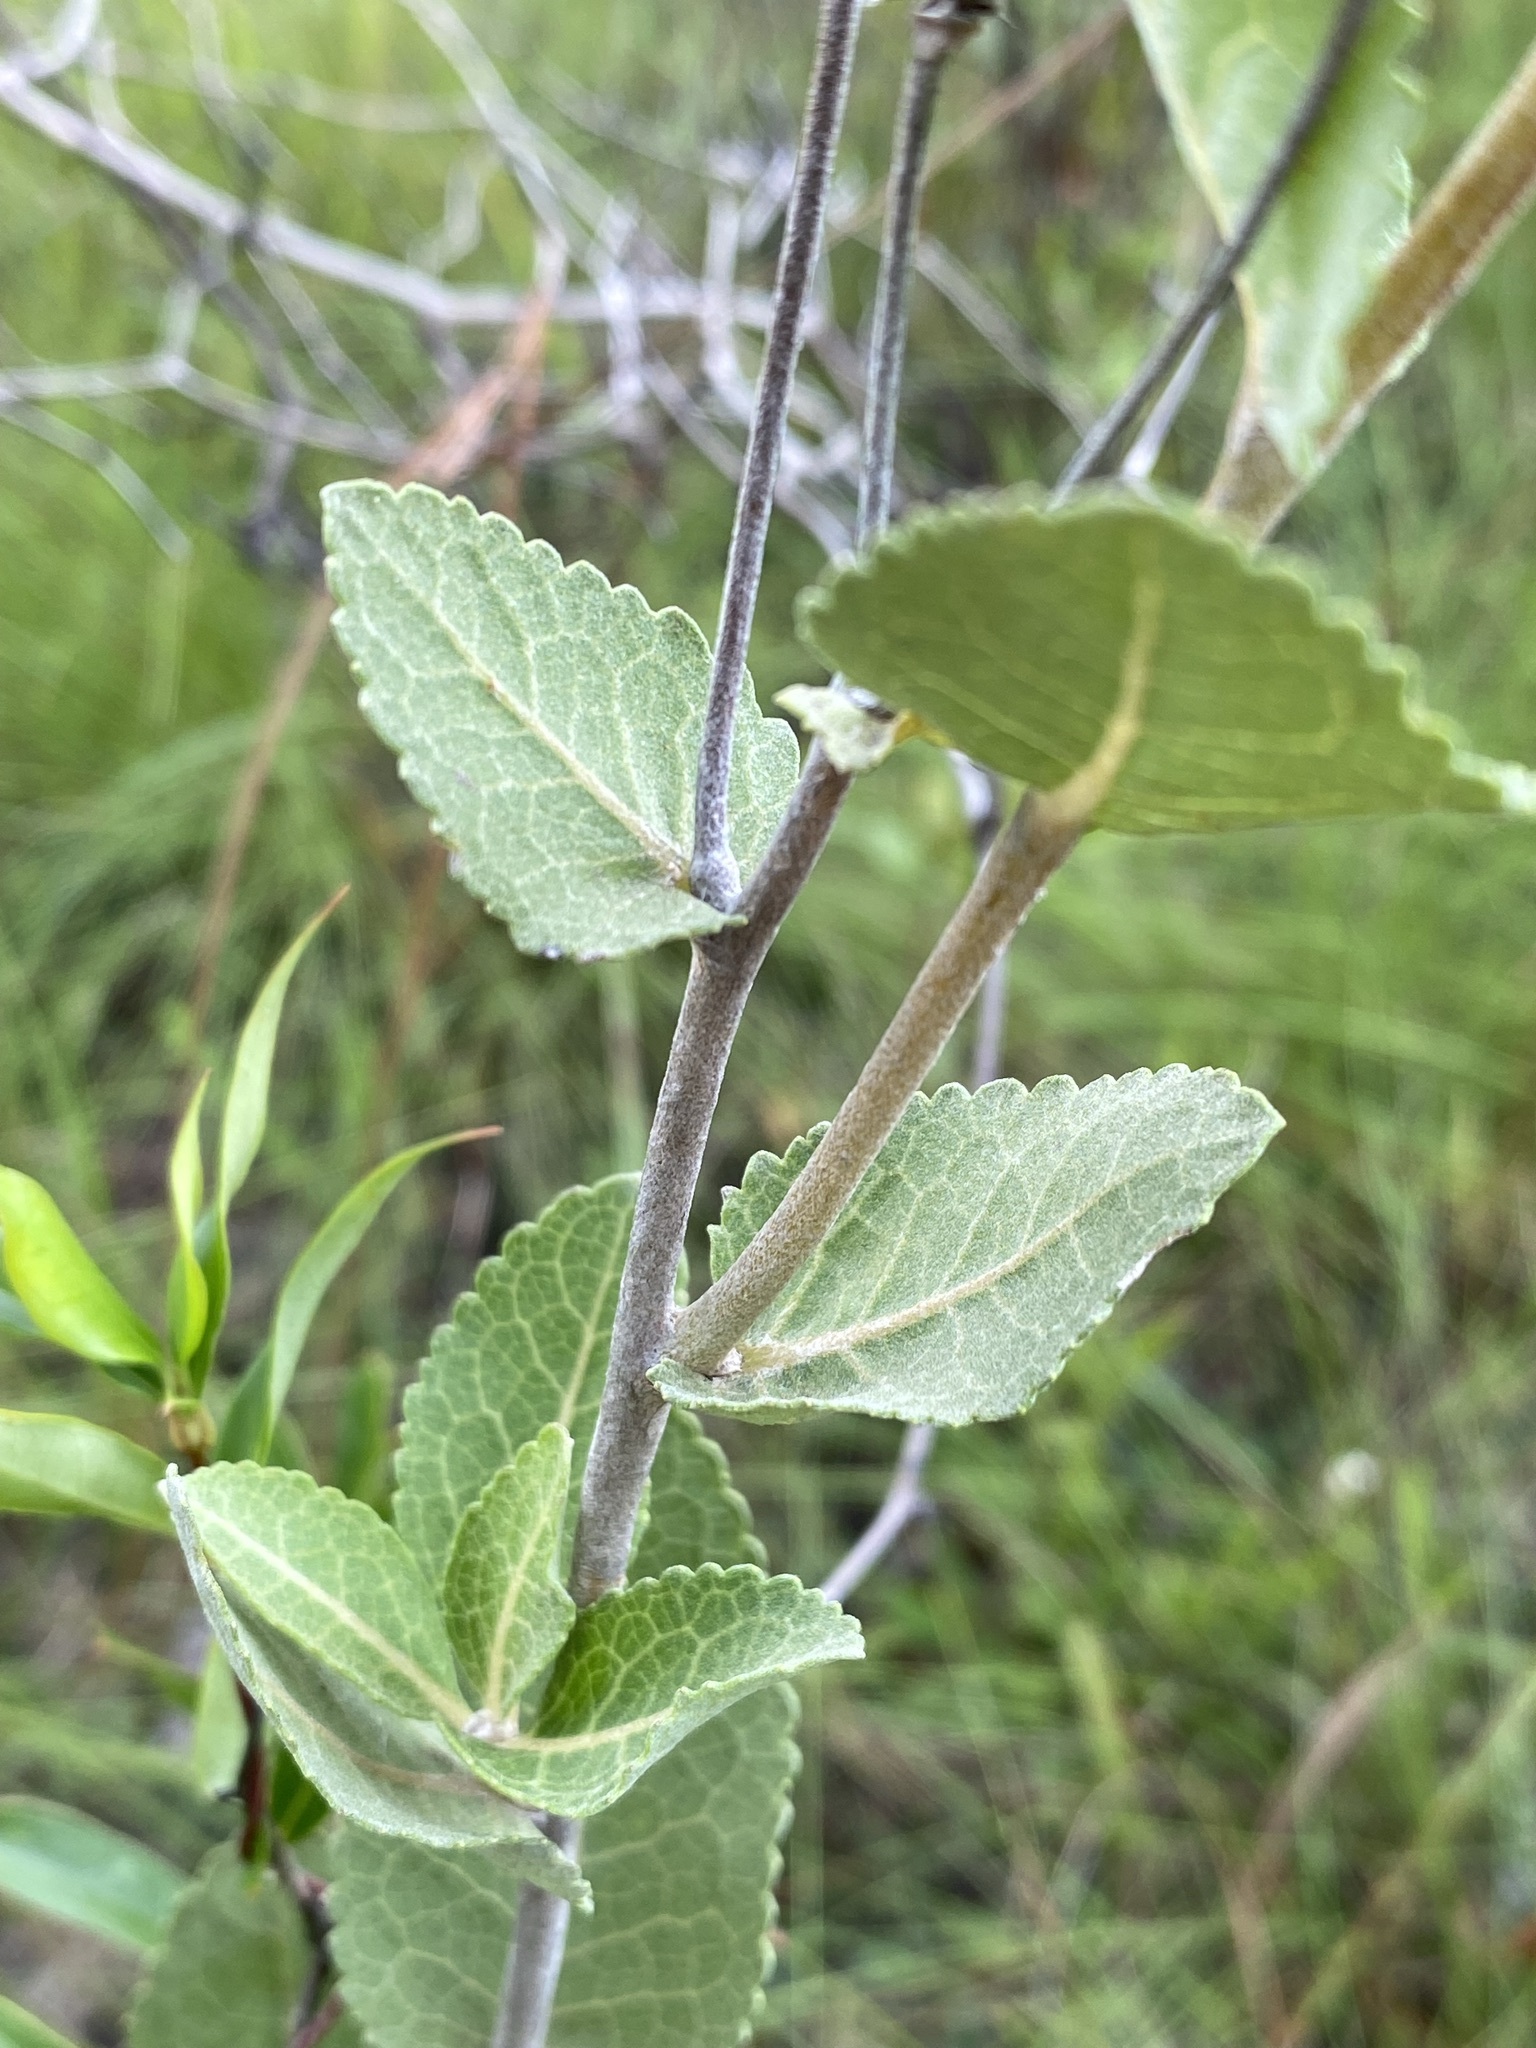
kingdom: Plantae
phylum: Tracheophyta
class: Magnoliopsida
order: Asterales
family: Asteraceae
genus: Berlandiera
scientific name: Berlandiera pumila
